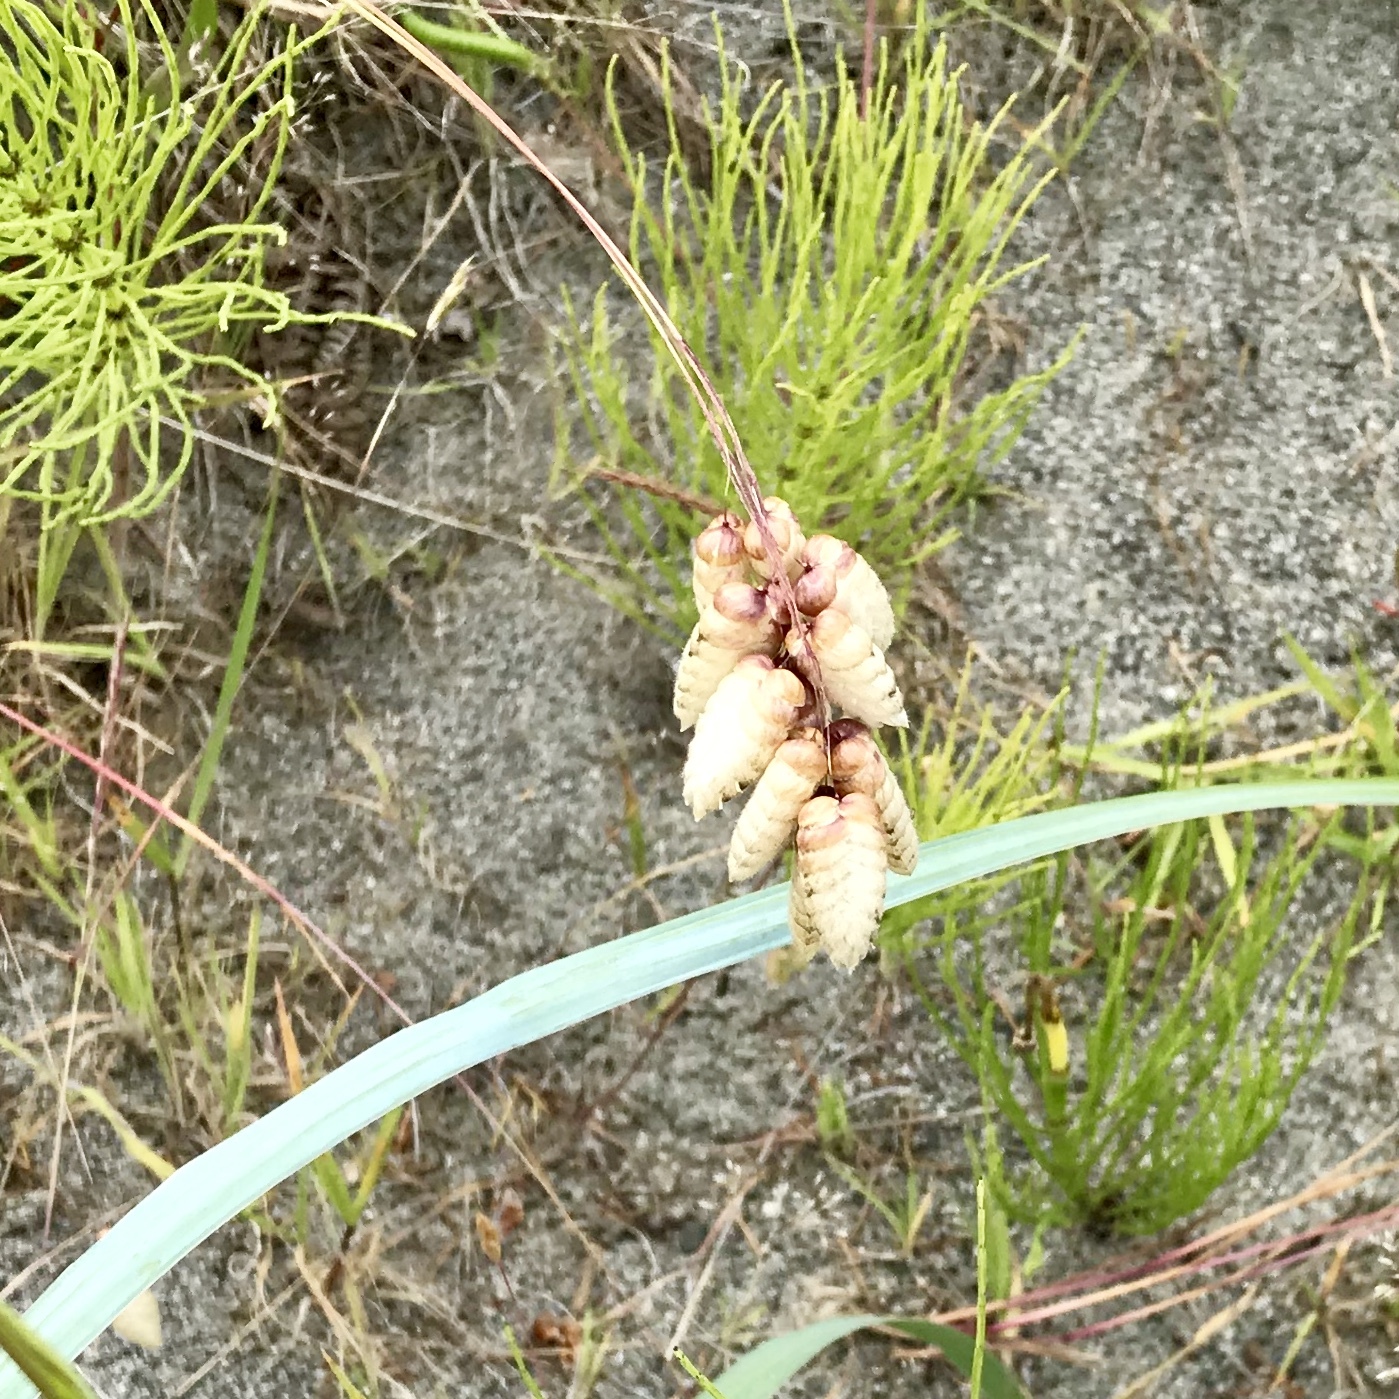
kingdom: Plantae
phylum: Tracheophyta
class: Liliopsida
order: Poales
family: Poaceae
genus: Briza
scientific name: Briza maxima
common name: Big quakinggrass
